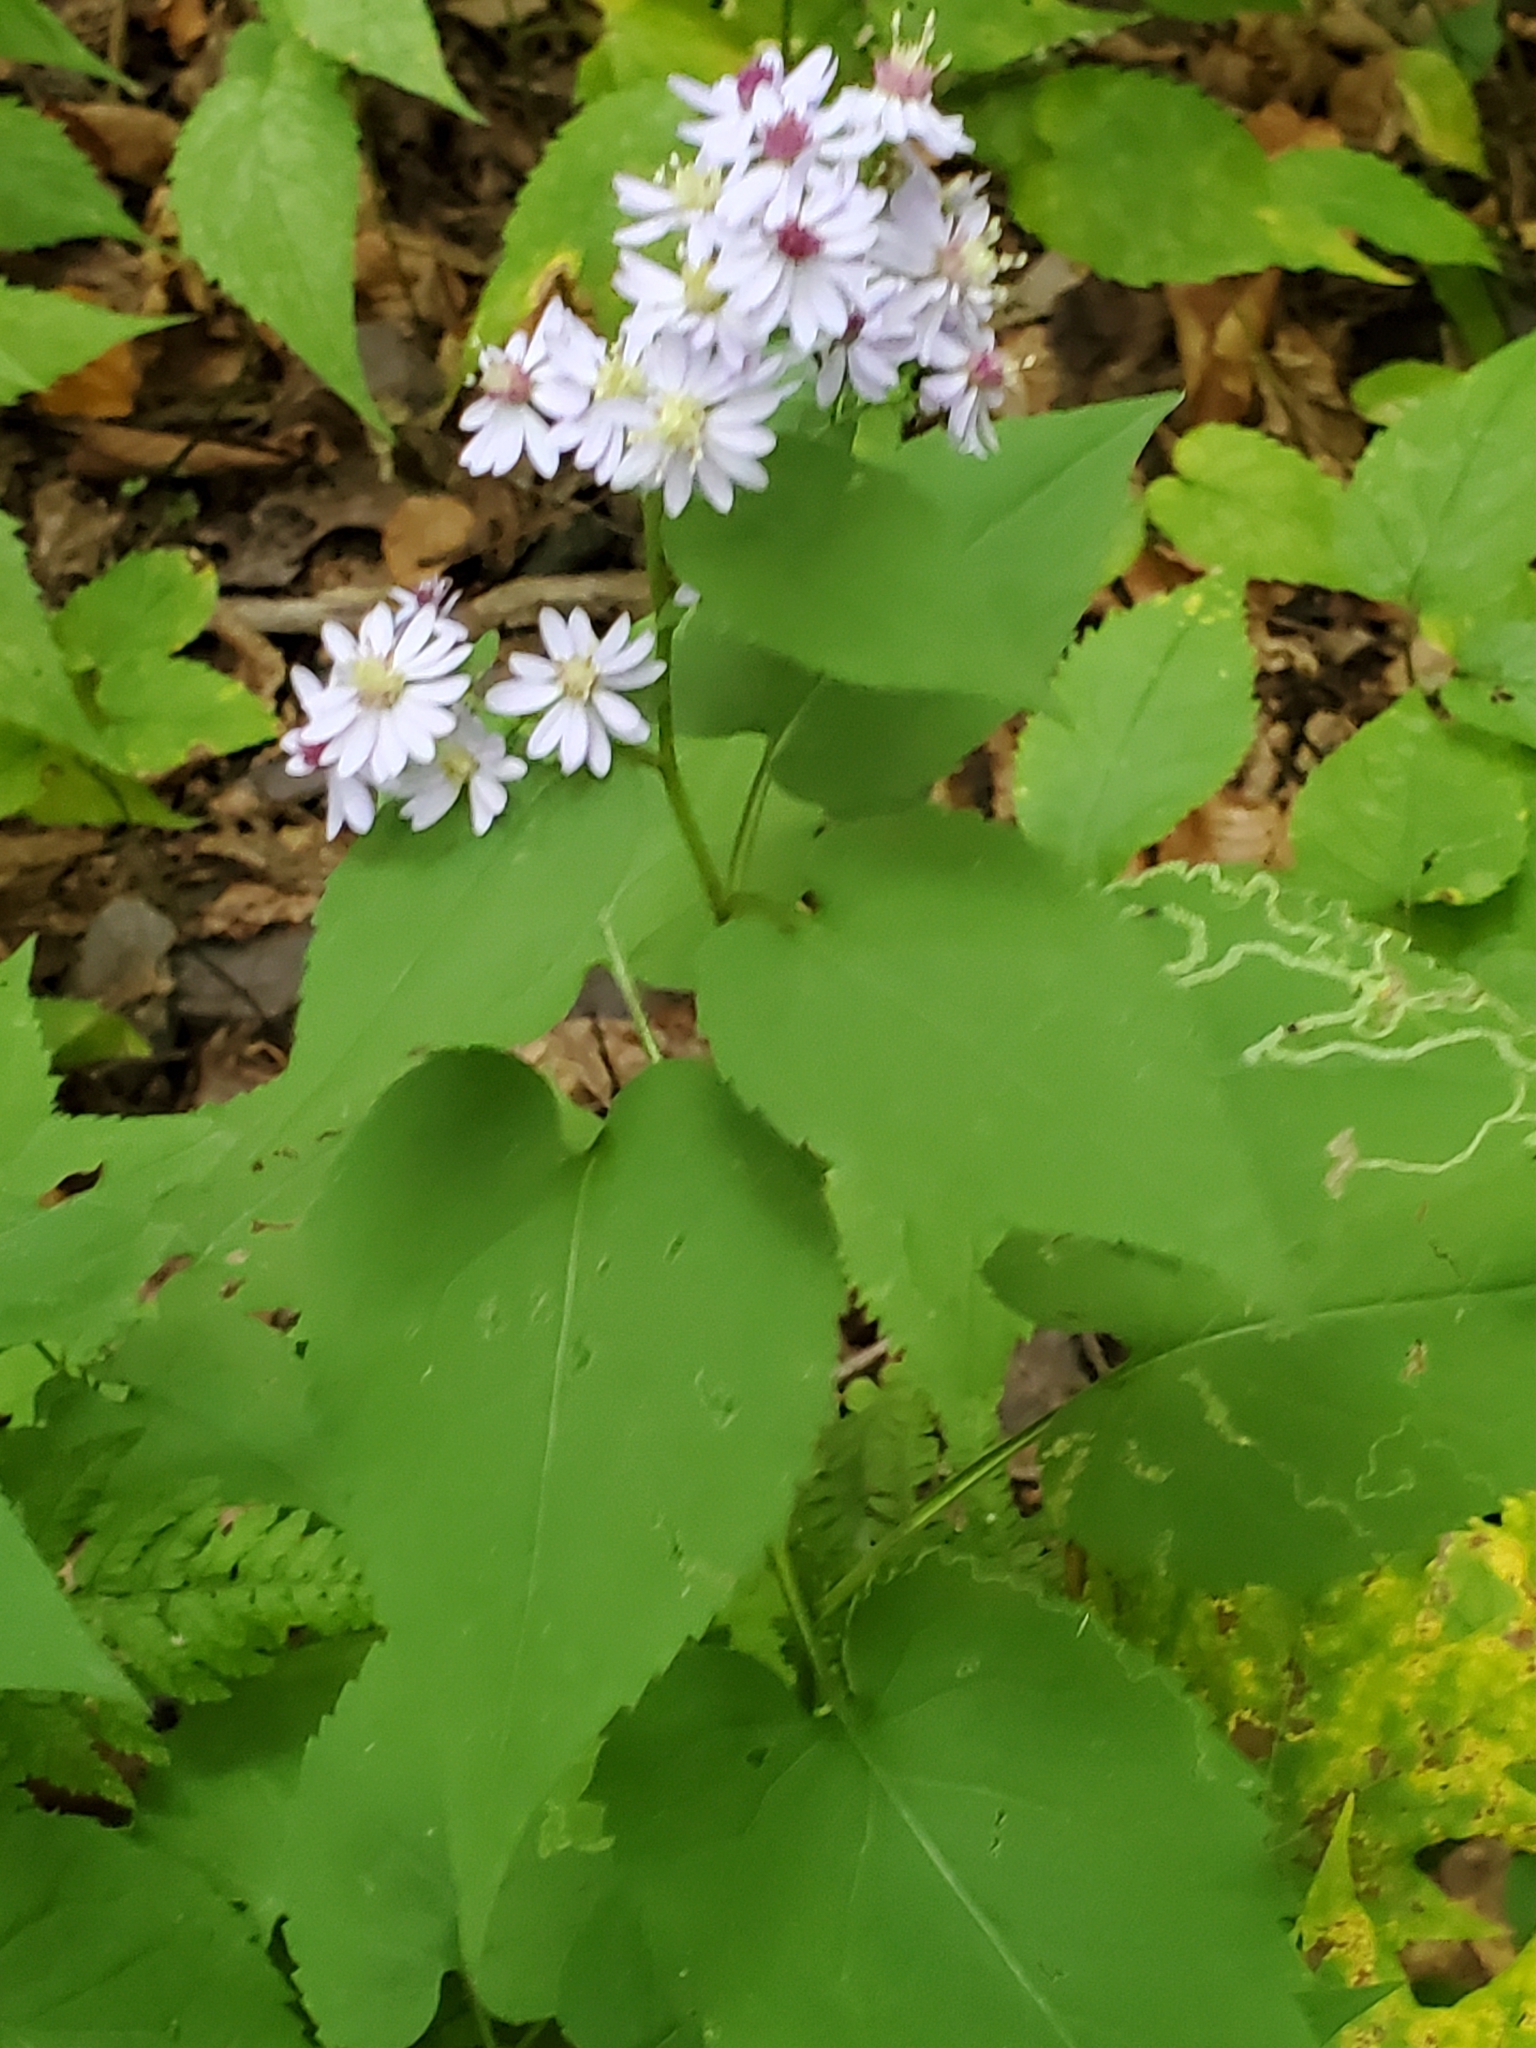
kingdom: Plantae
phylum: Tracheophyta
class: Magnoliopsida
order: Asterales
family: Asteraceae
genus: Symphyotrichum
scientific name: Symphyotrichum cordifolium
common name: Beeweed
